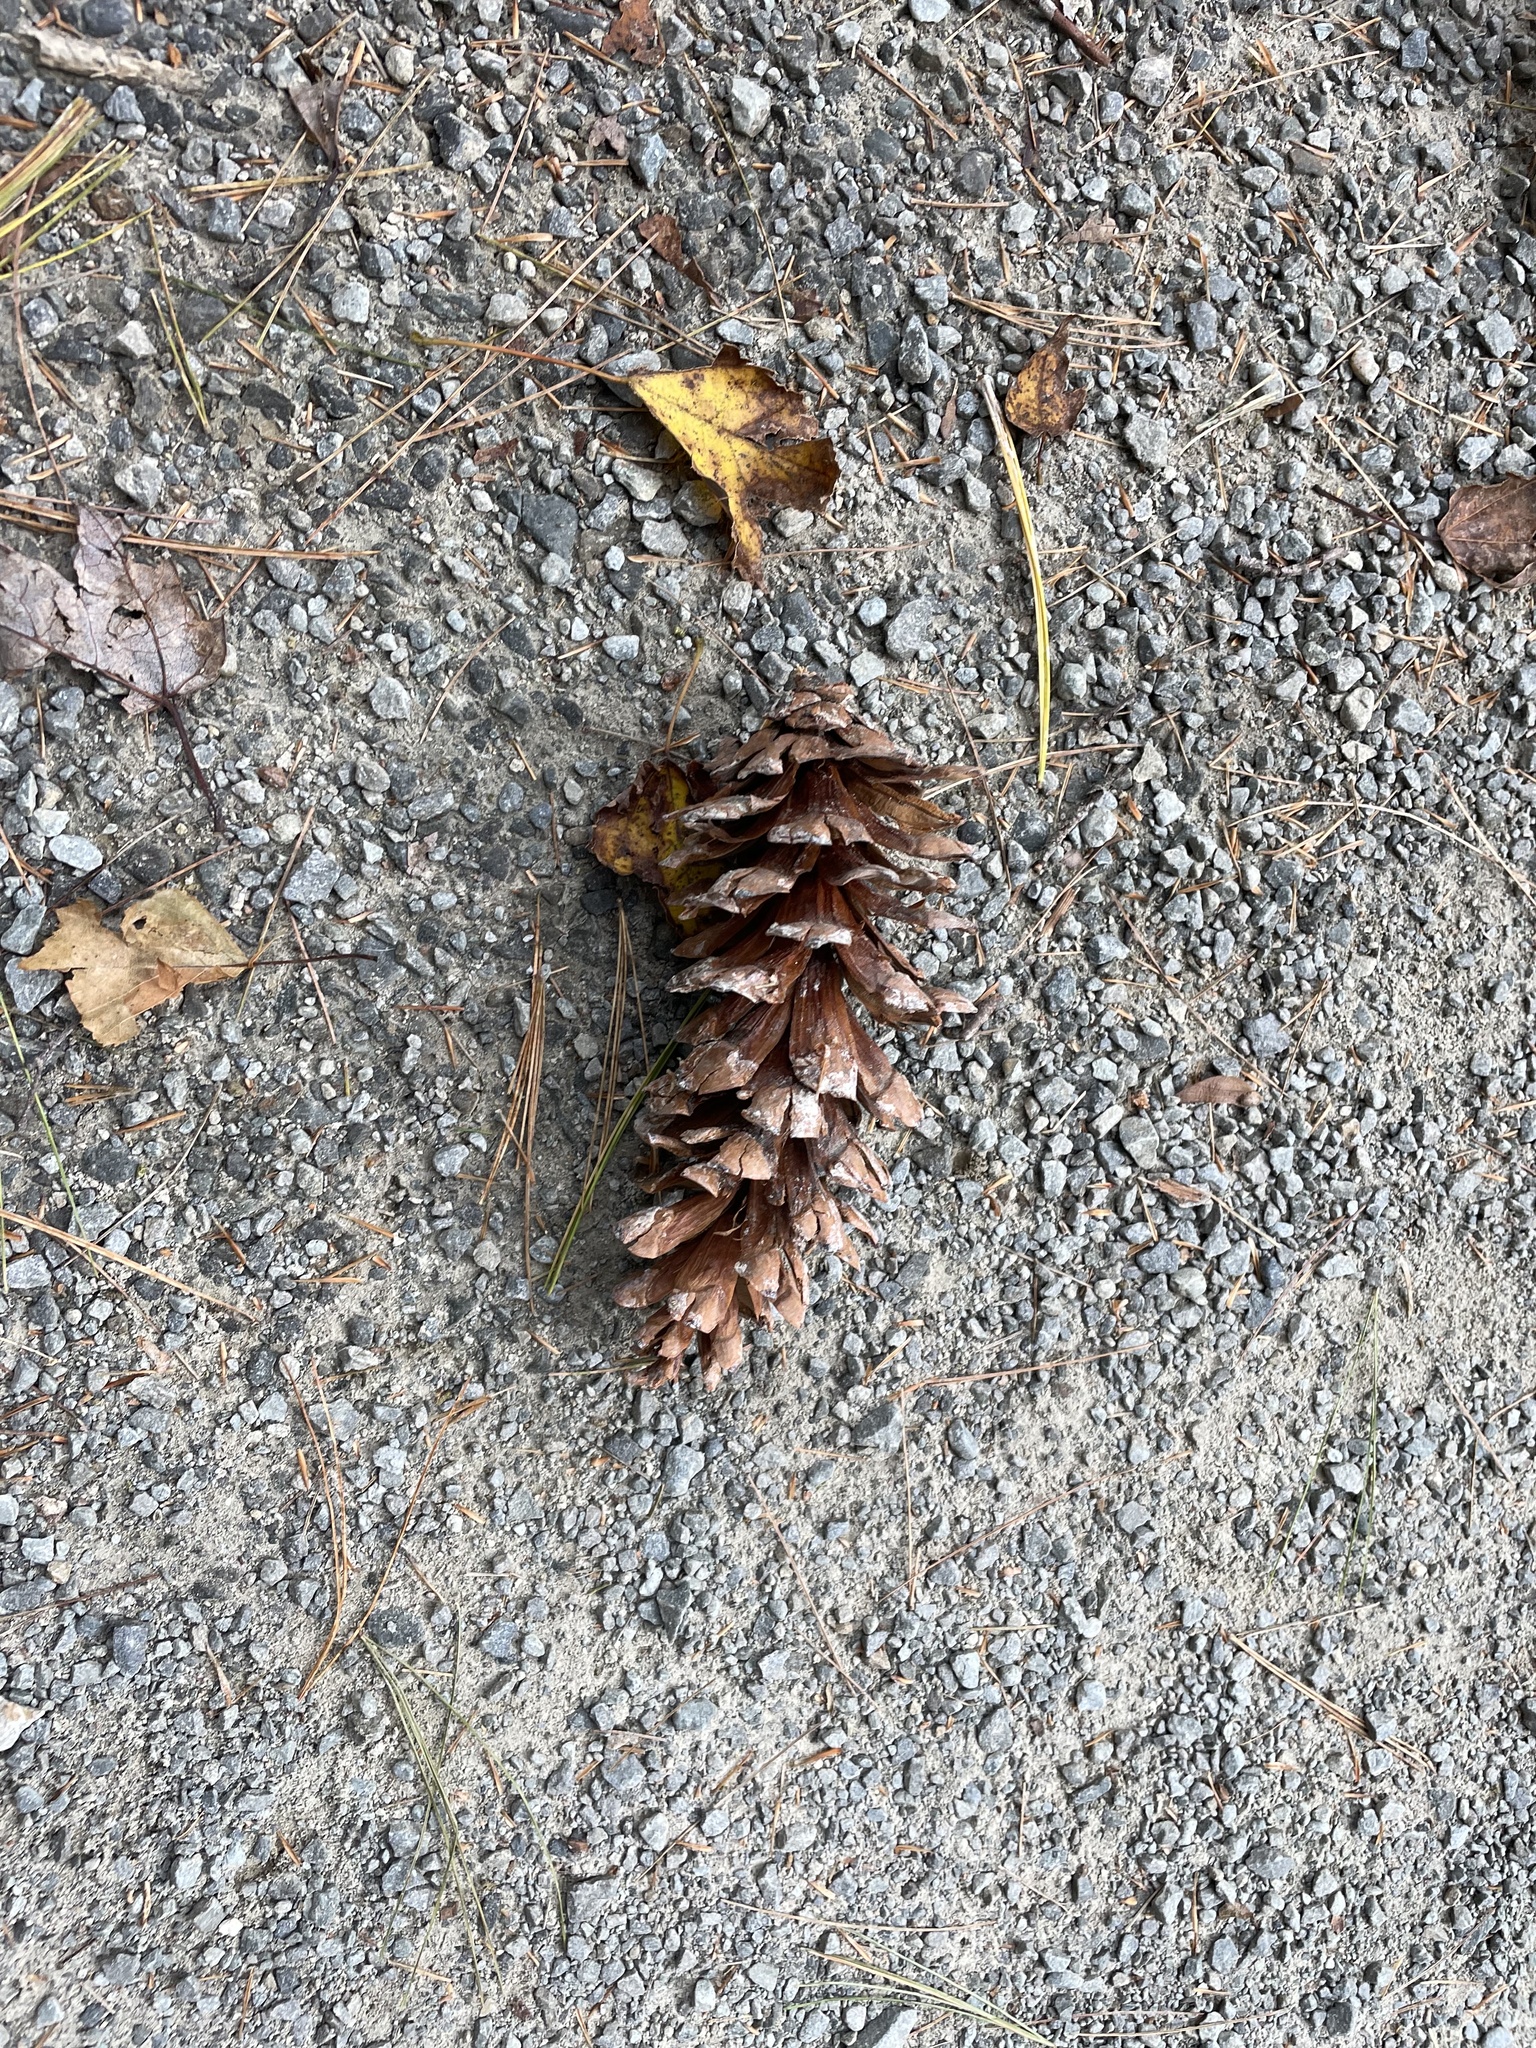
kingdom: Plantae
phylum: Tracheophyta
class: Pinopsida
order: Pinales
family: Pinaceae
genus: Pinus
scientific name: Pinus strobus
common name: Weymouth pine
